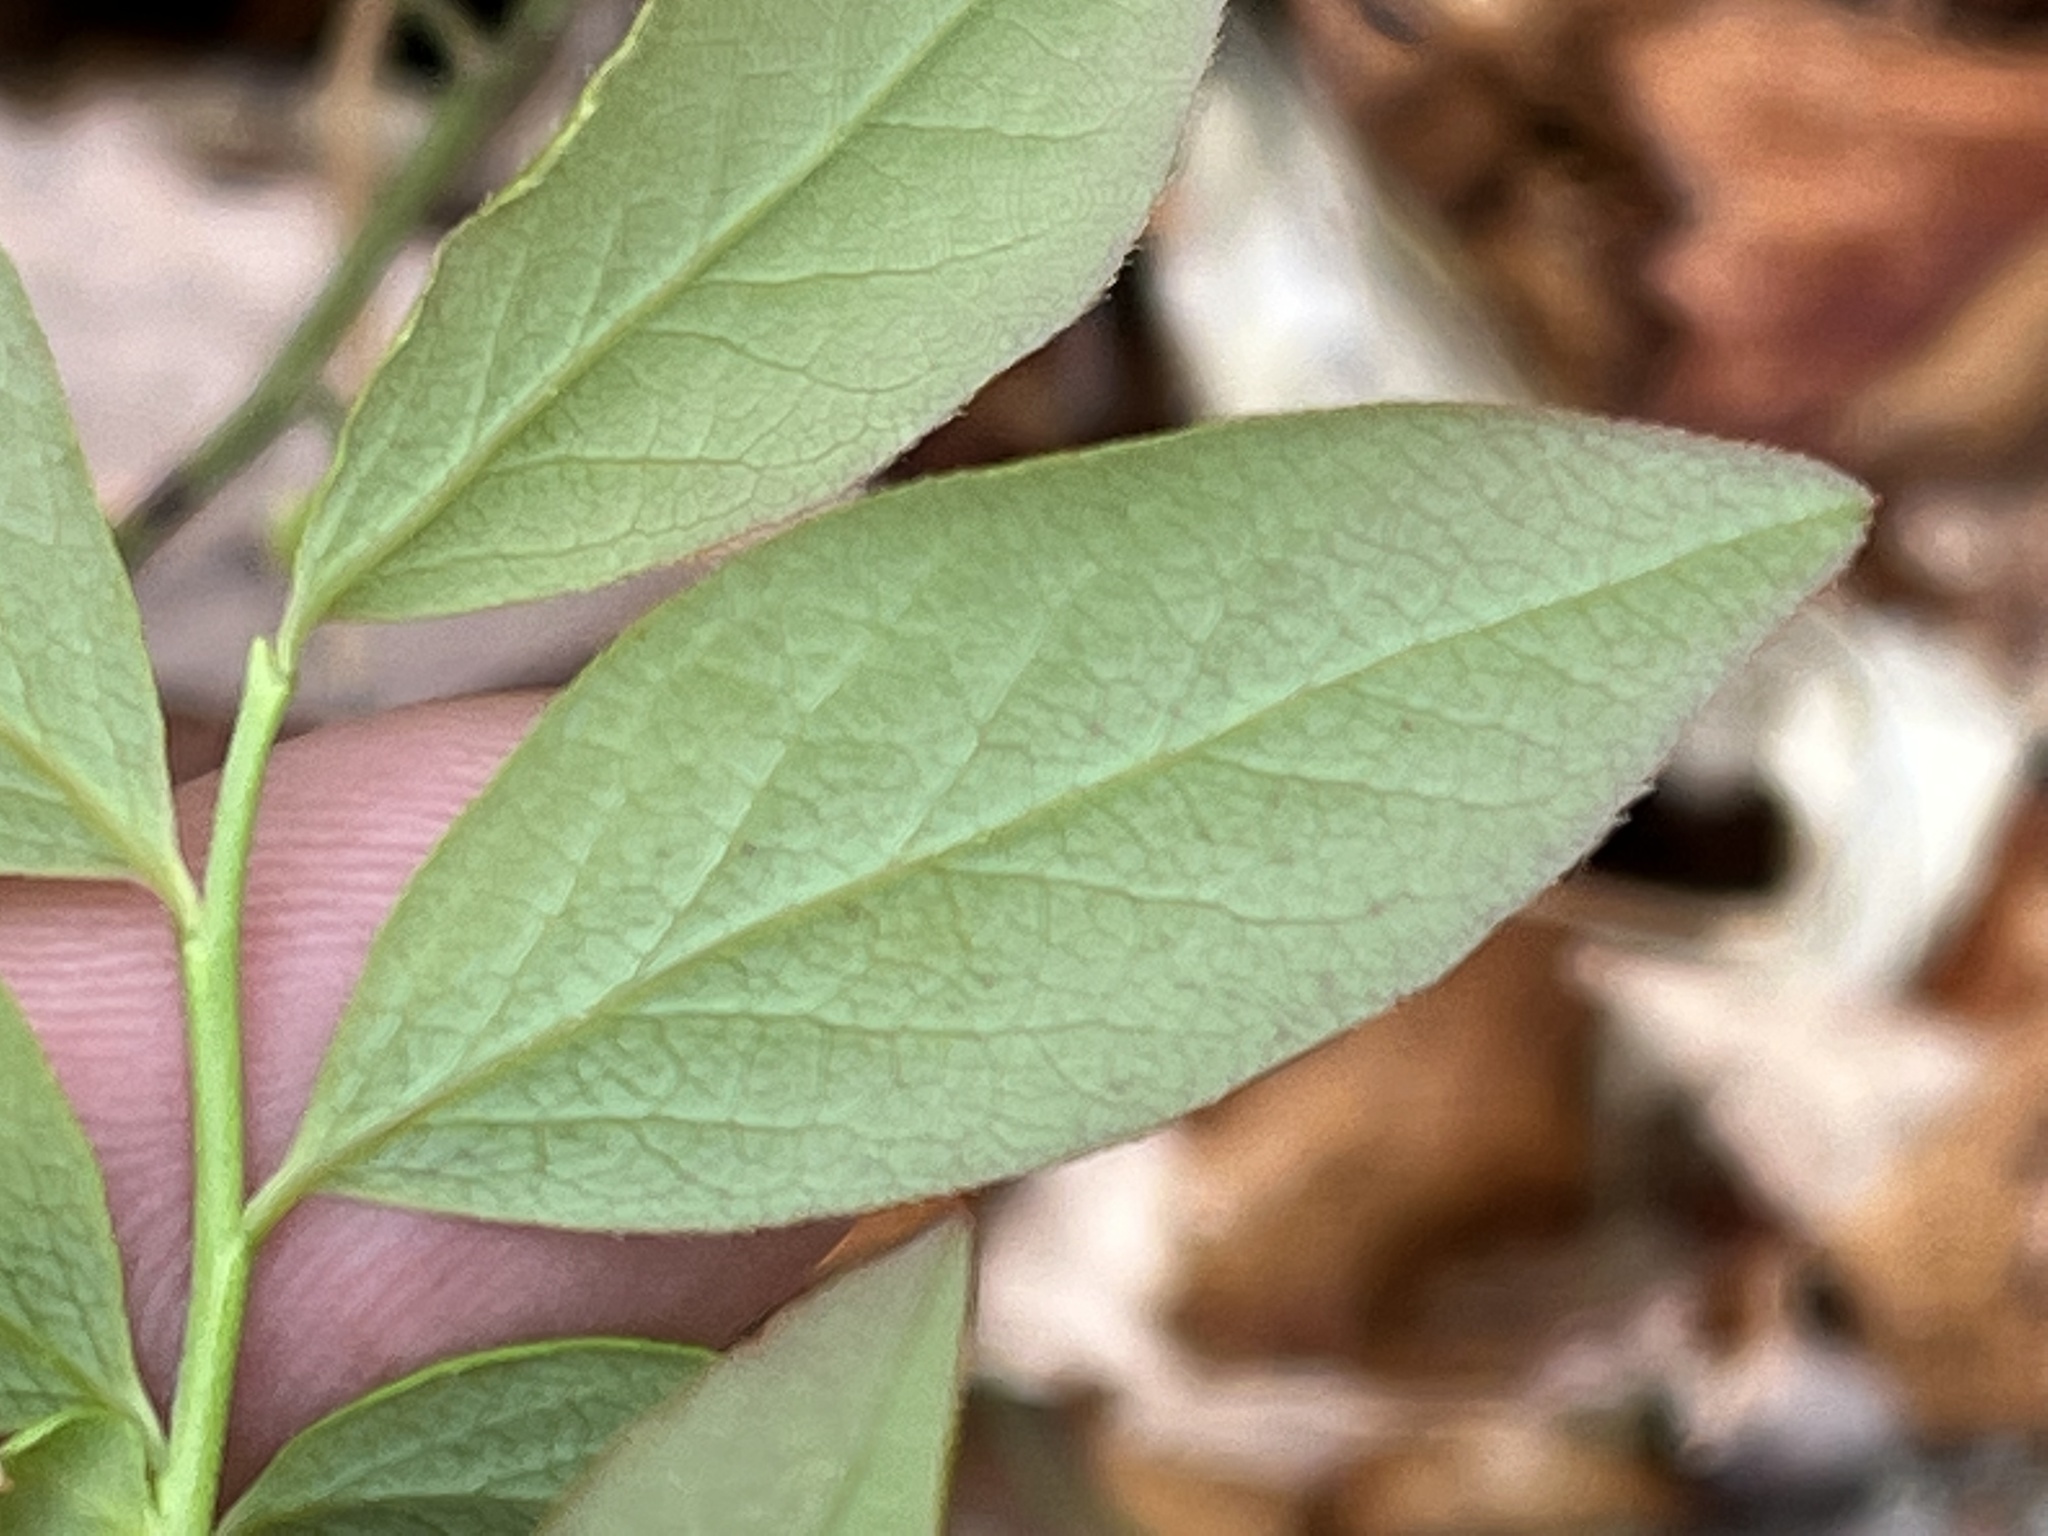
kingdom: Plantae
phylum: Tracheophyta
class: Magnoliopsida
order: Ericales
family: Ericaceae
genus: Vaccinium
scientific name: Vaccinium pallidum
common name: Blue ridge blueberry
